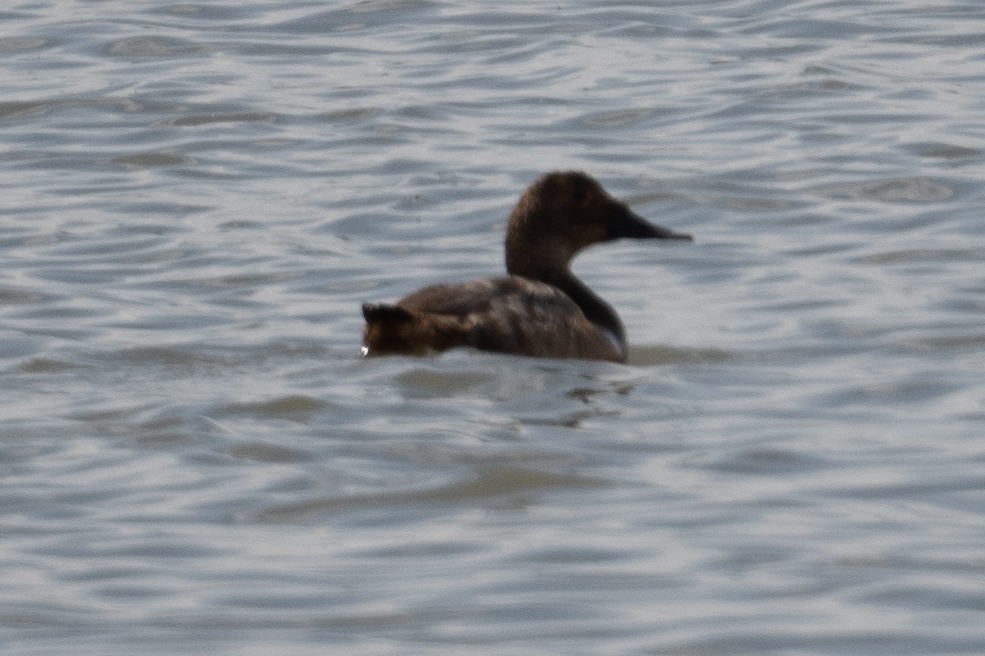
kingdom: Animalia
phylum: Chordata
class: Aves
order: Anseriformes
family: Anatidae
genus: Aythya
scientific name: Aythya valisineria
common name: Canvasback
